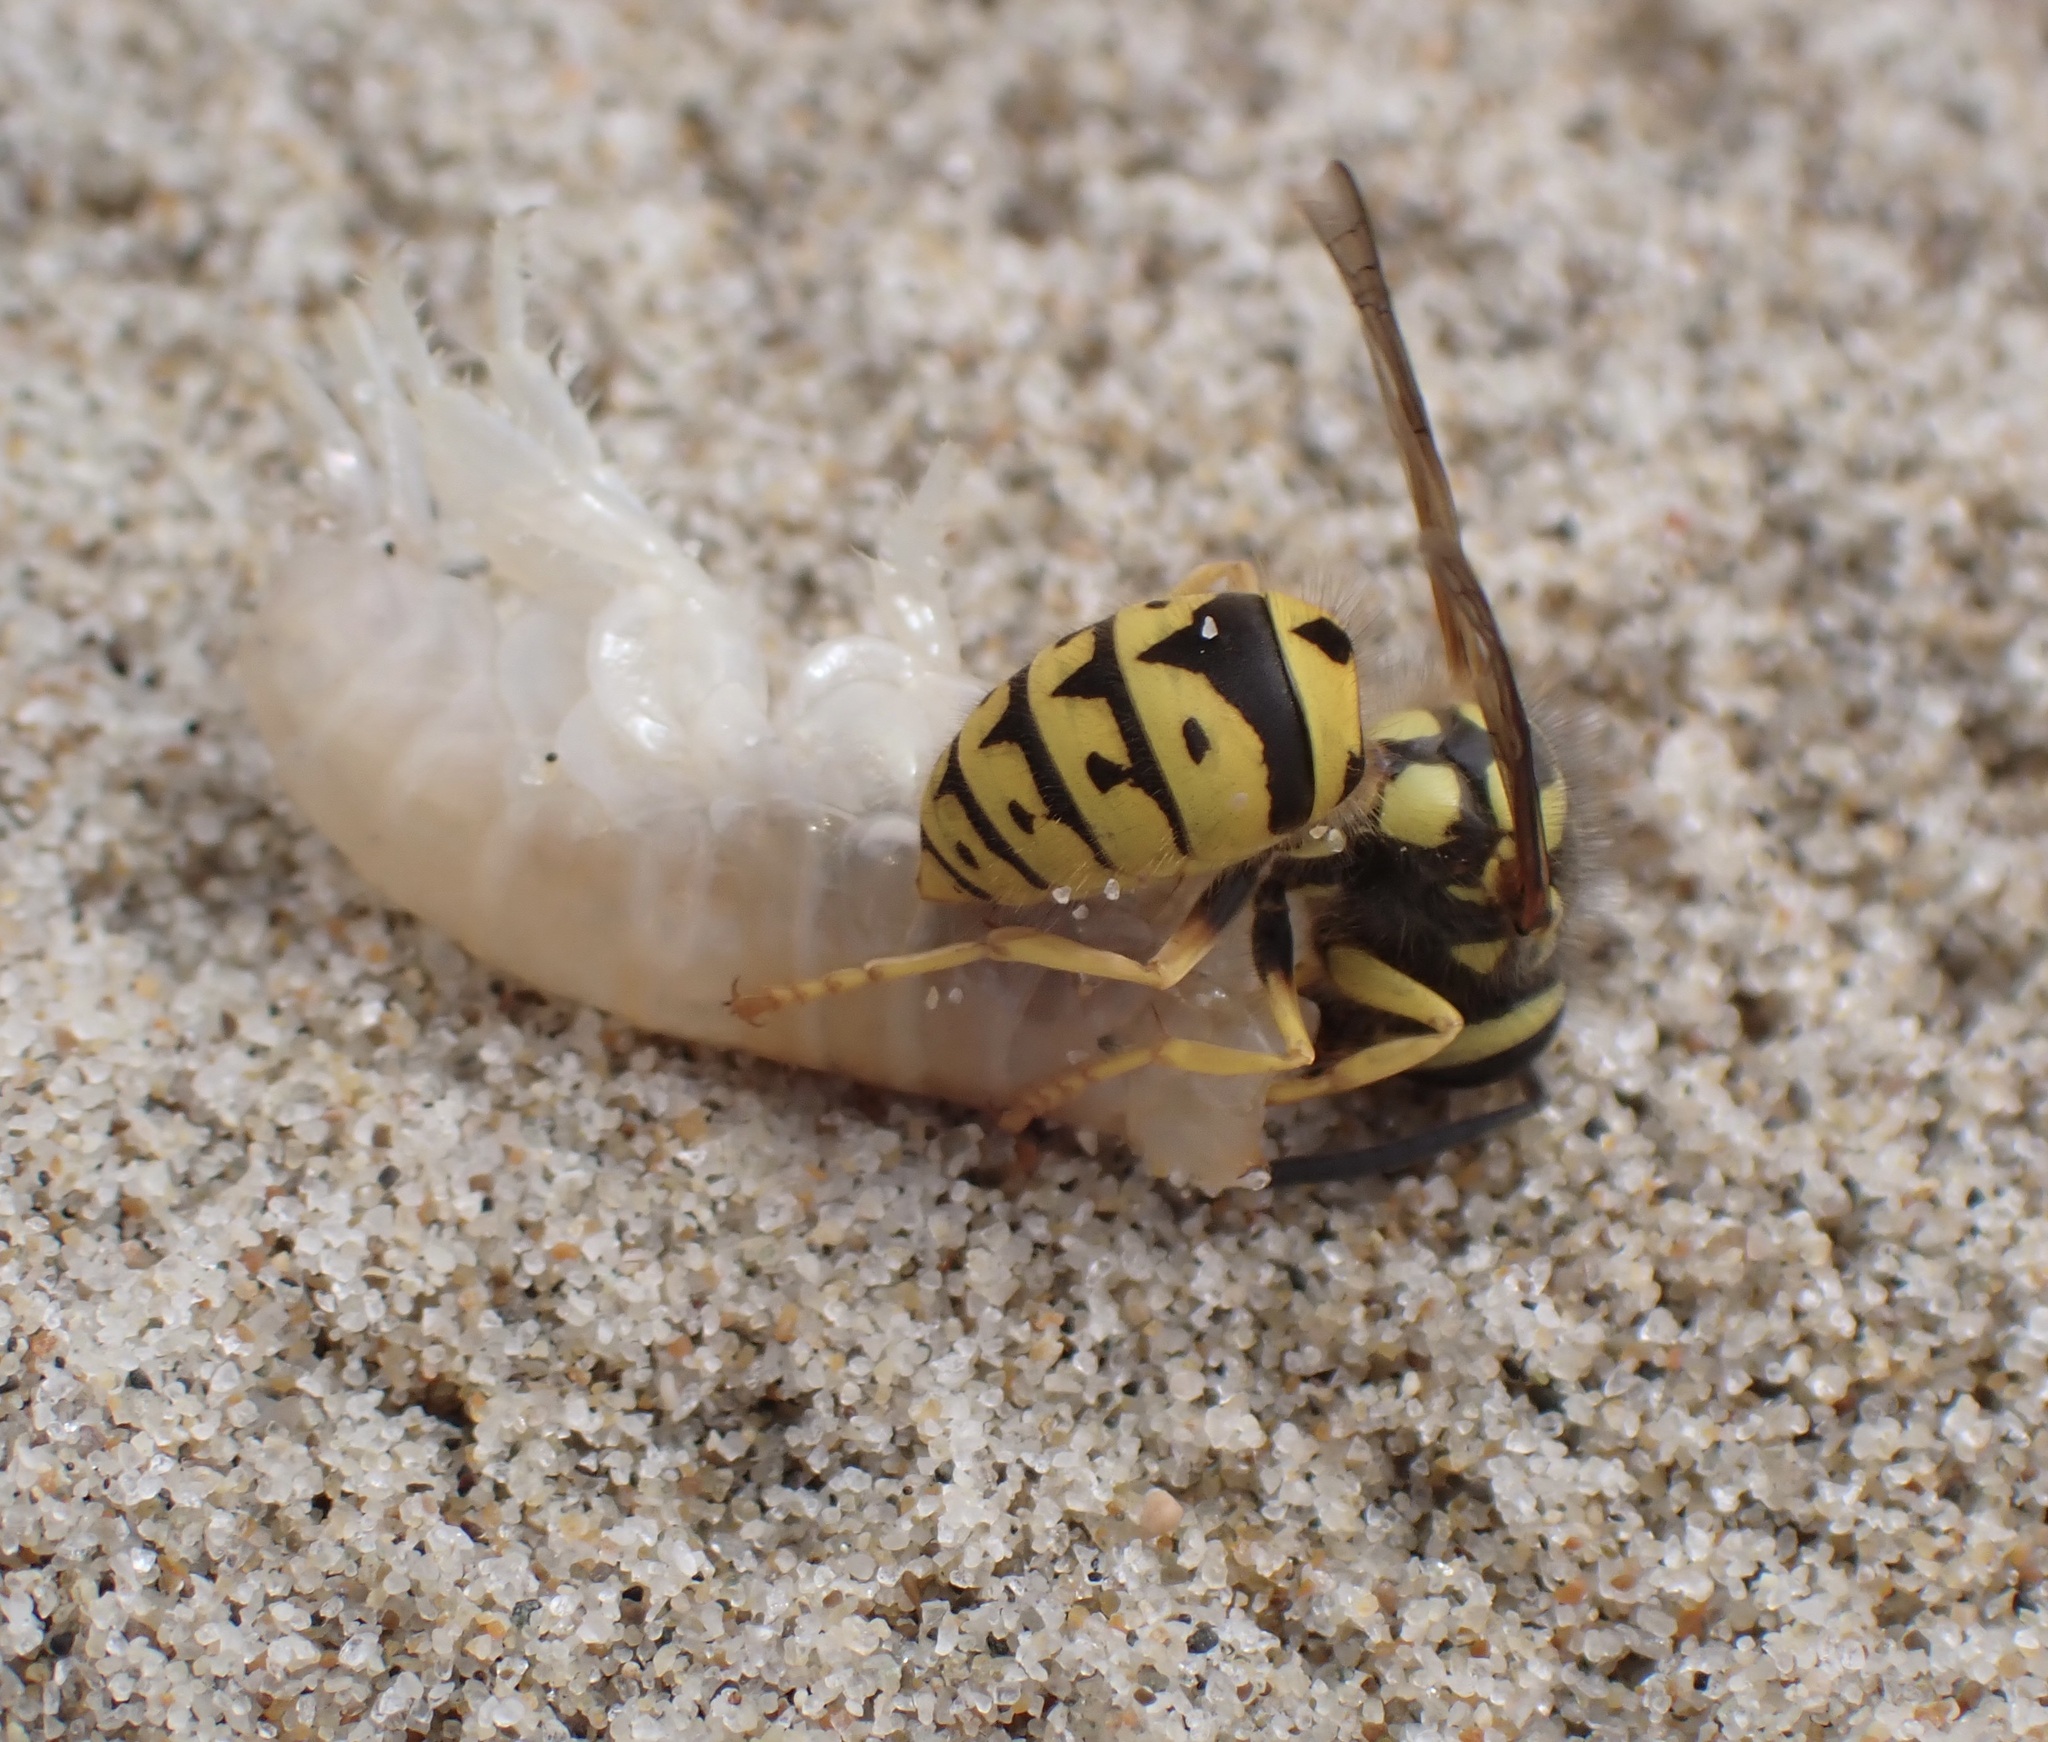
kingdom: Animalia
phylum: Arthropoda
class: Insecta
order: Hymenoptera
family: Vespidae
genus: Vespula
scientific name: Vespula pensylvanica
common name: Western yellowjacket
